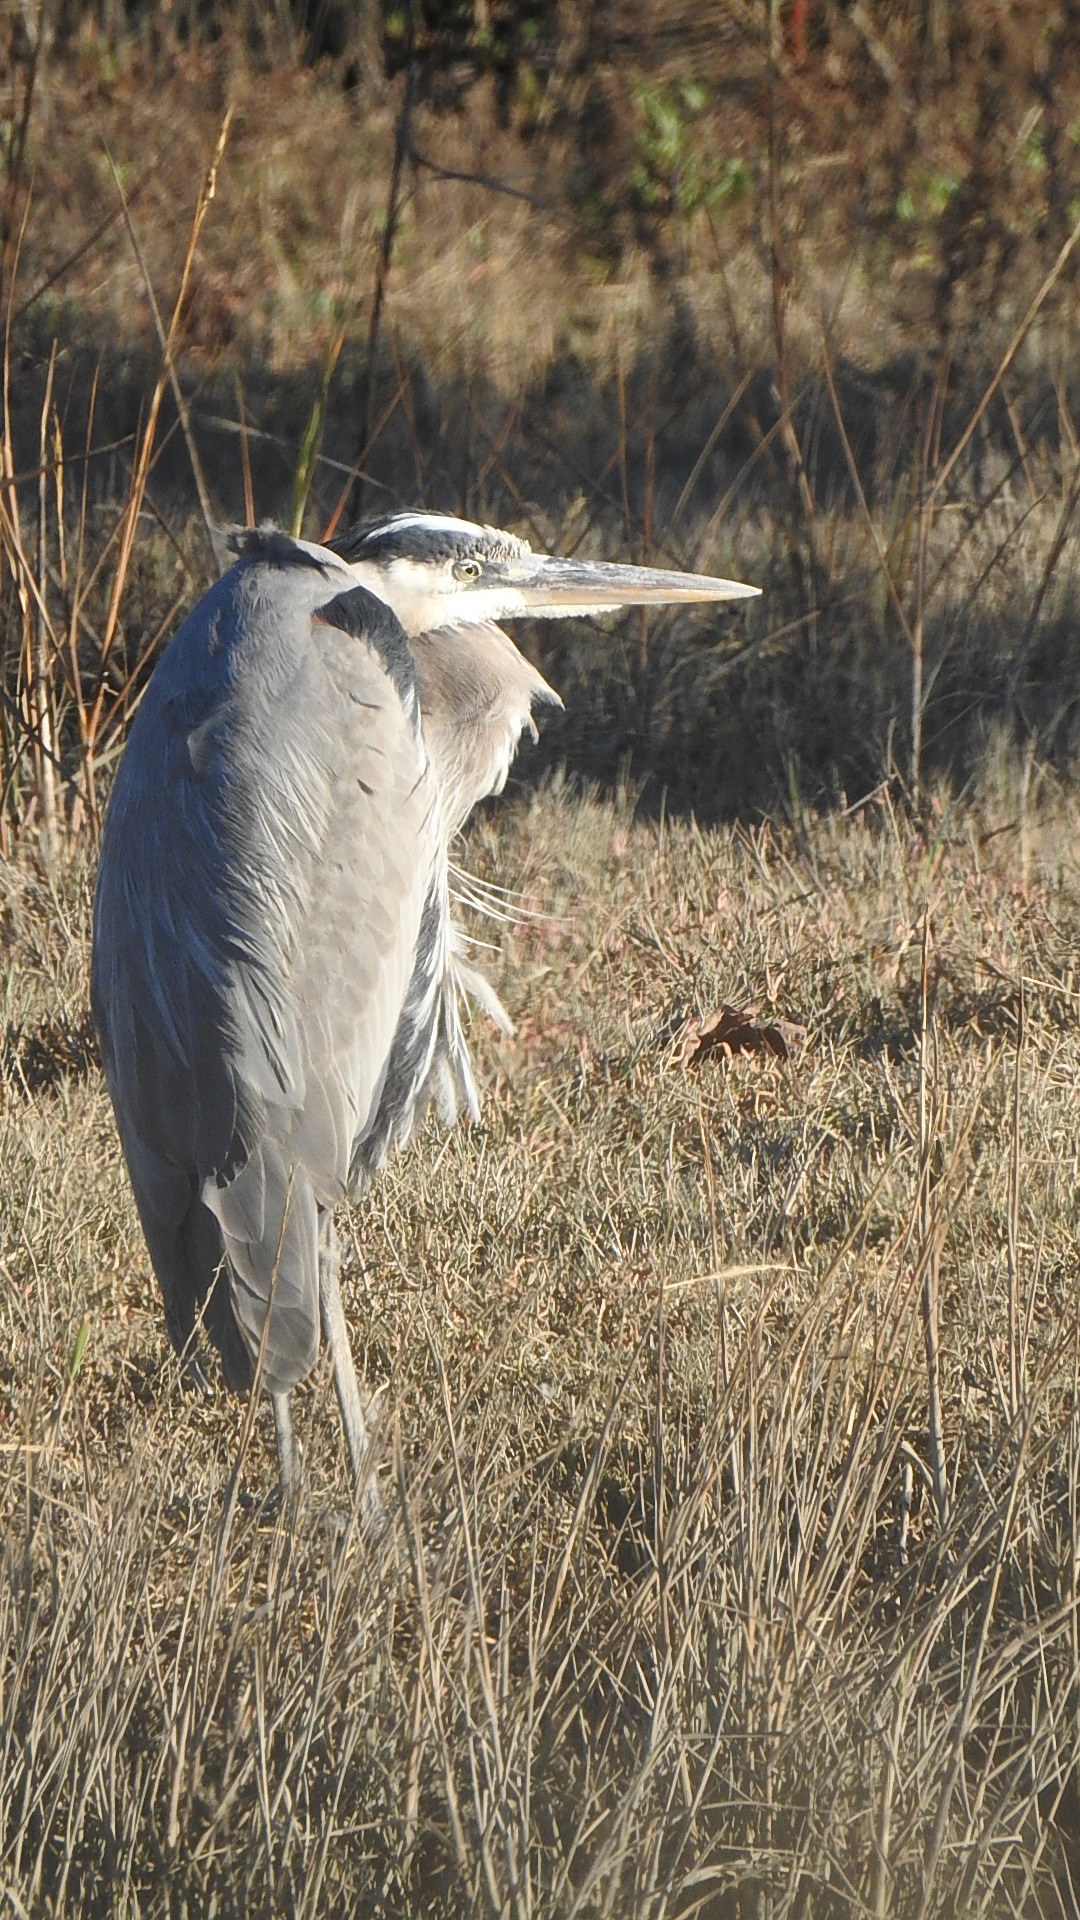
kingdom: Animalia
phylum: Chordata
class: Aves
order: Pelecaniformes
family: Ardeidae
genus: Ardea
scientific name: Ardea herodias
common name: Great blue heron
